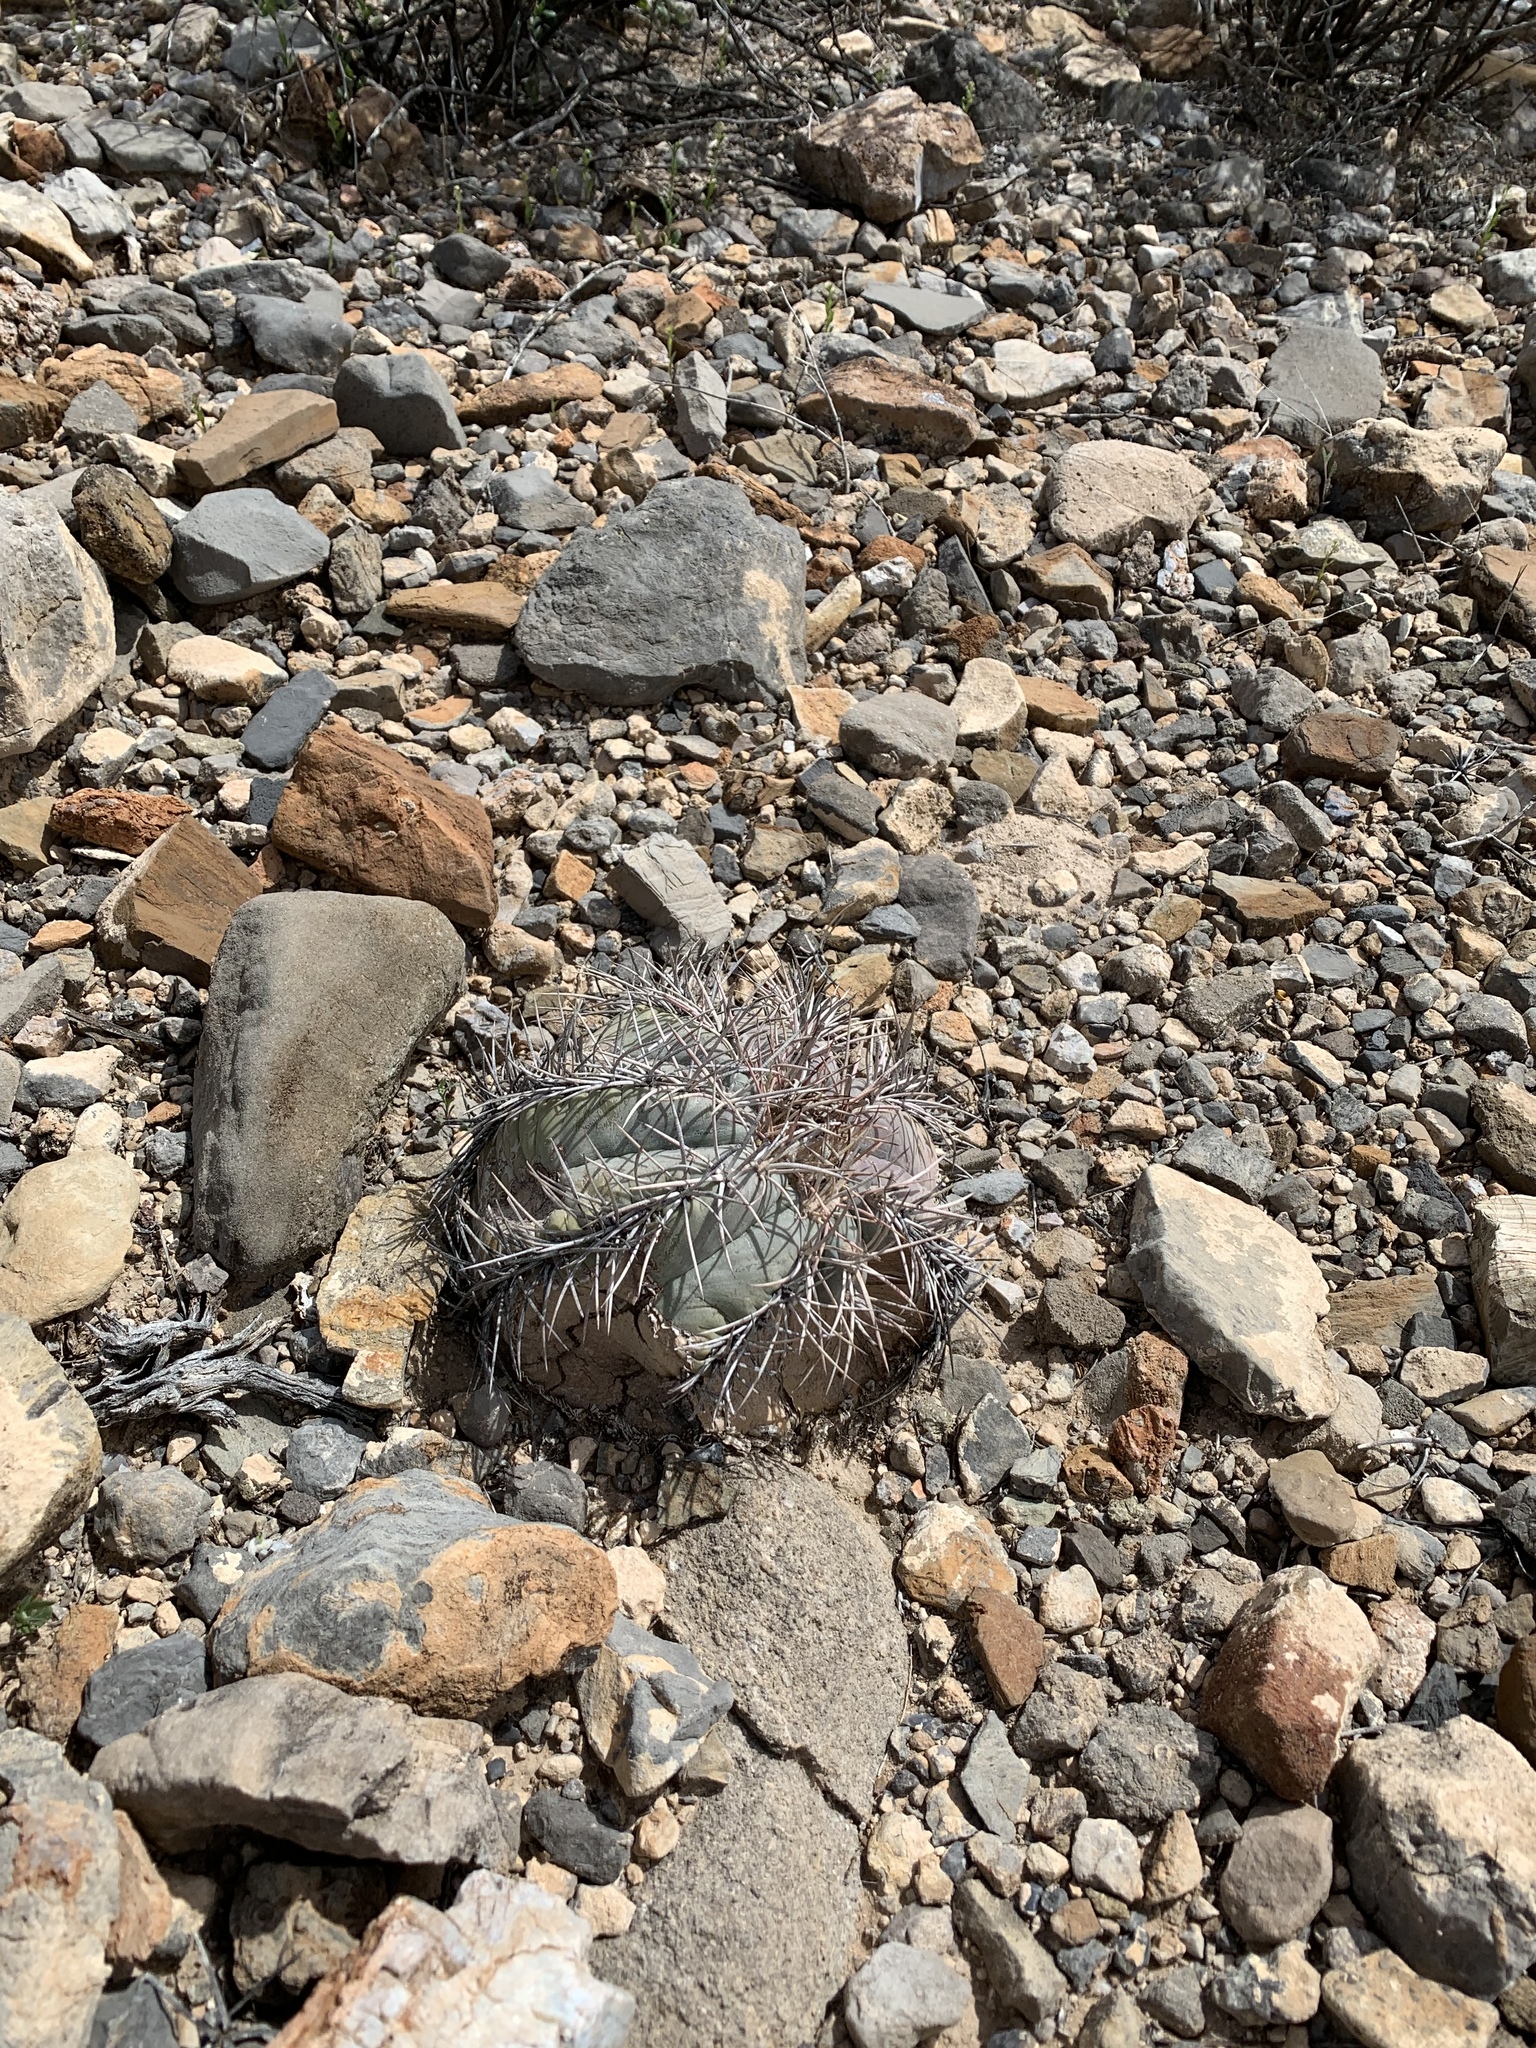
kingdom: Plantae
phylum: Tracheophyta
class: Magnoliopsida
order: Caryophyllales
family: Cactaceae
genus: Echinocactus
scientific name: Echinocactus horizonthalonius
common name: Devilshead
